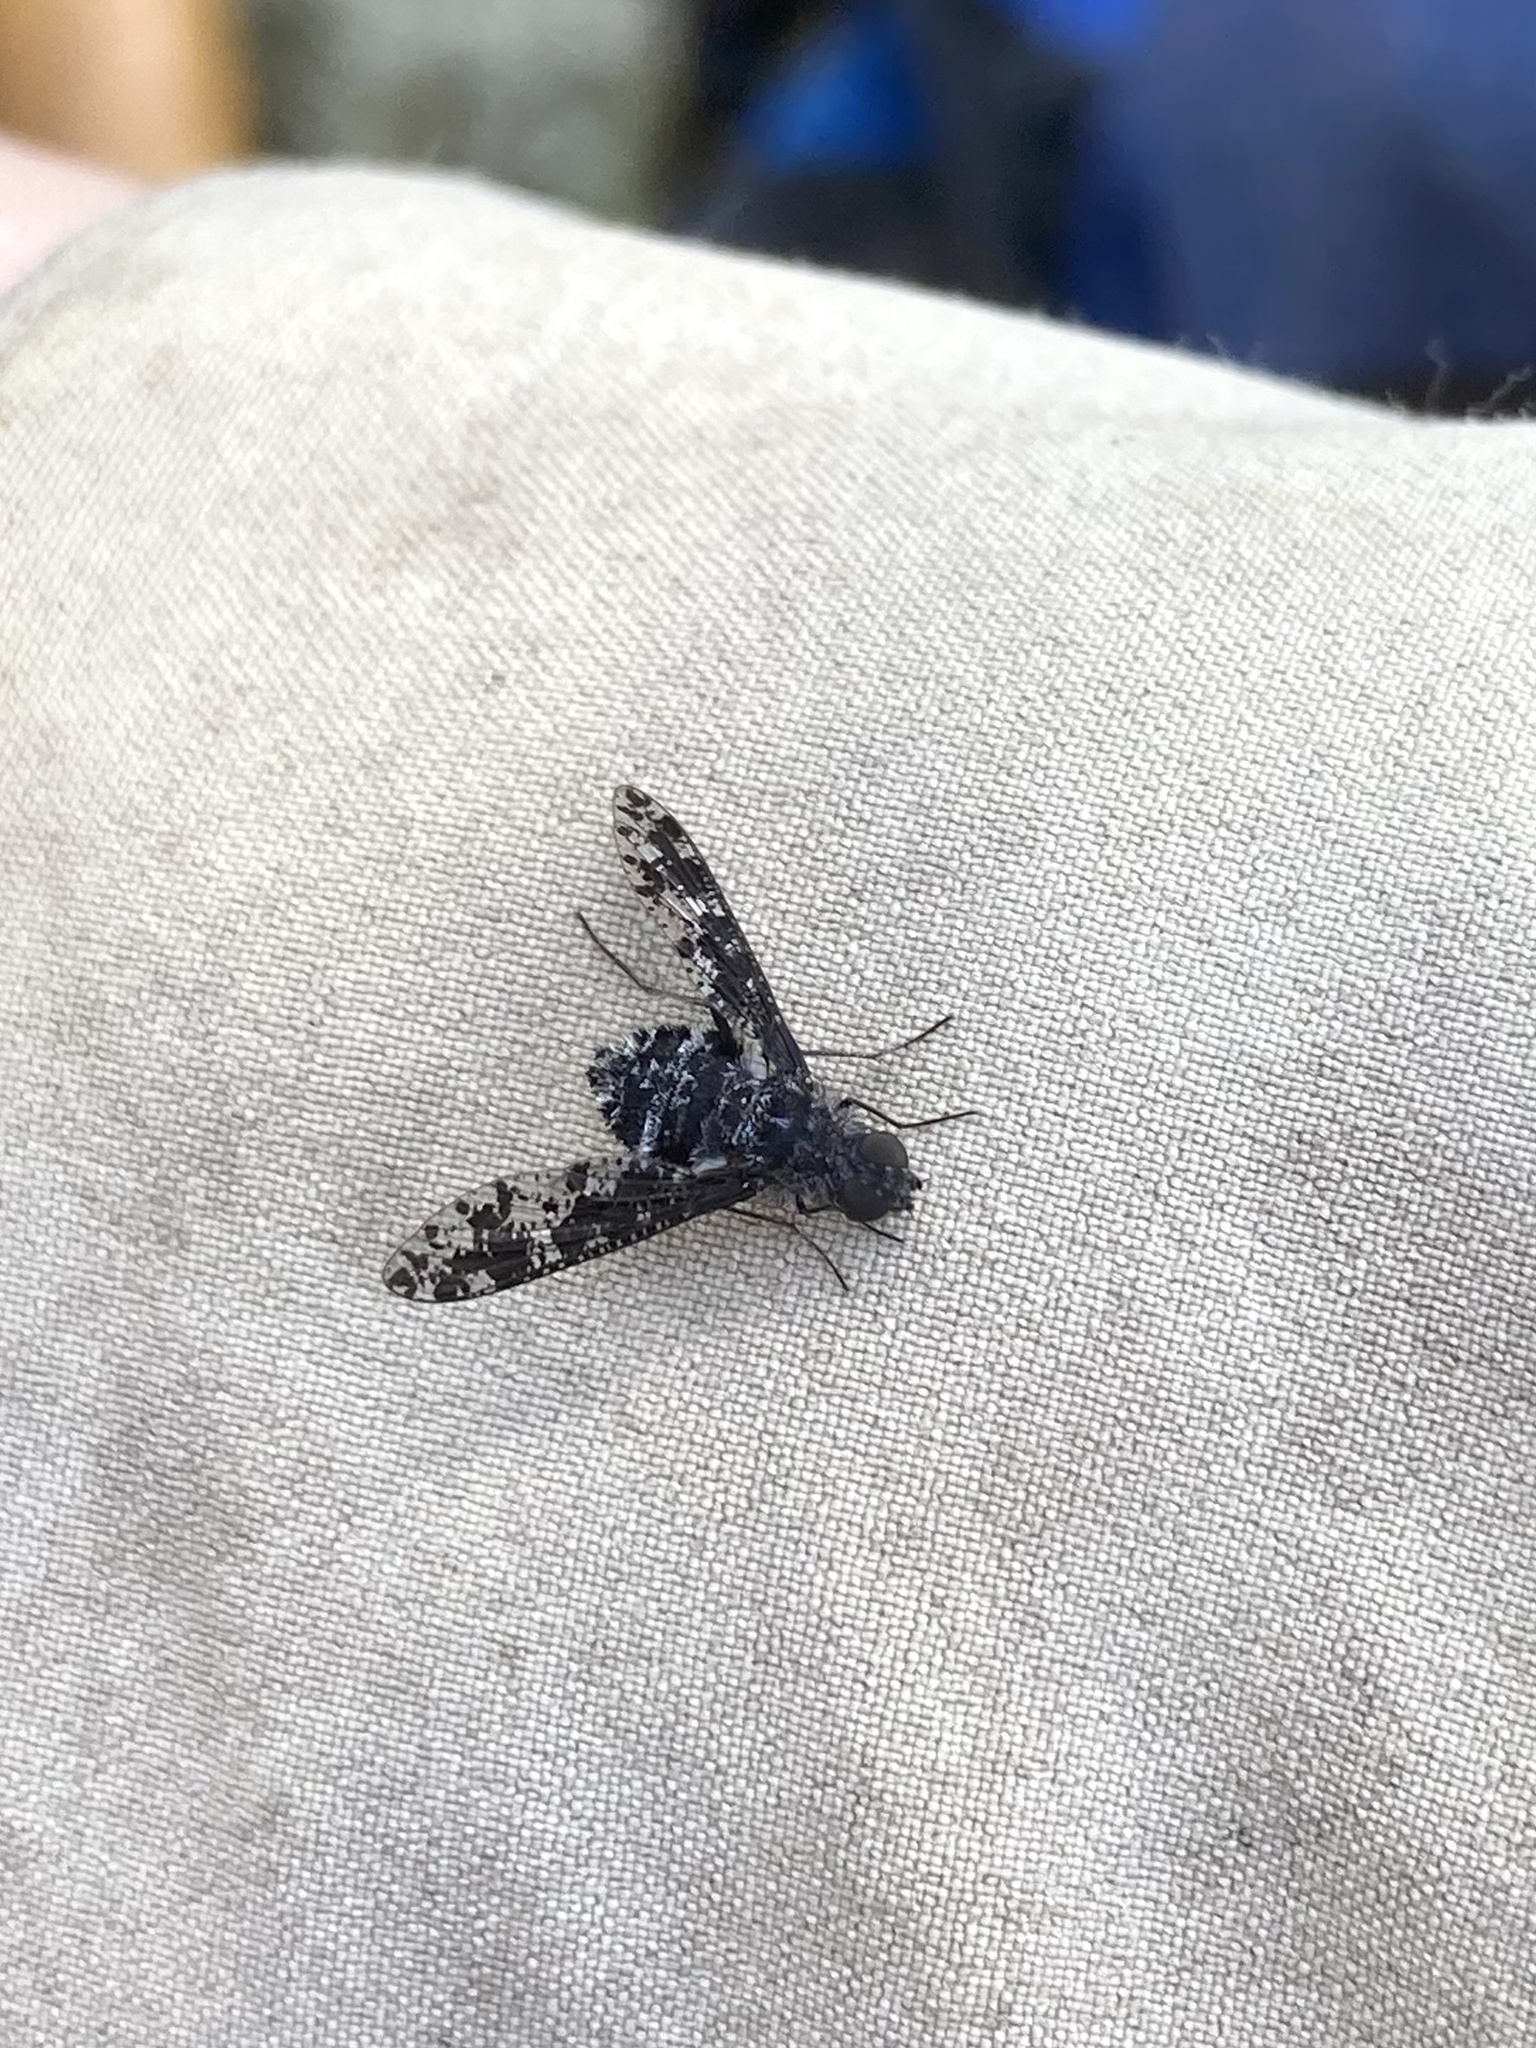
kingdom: Animalia
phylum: Arthropoda
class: Insecta
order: Diptera
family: Bombyliidae
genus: Anthrax
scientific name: Anthrax irroratus
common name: Spotted bee fly
